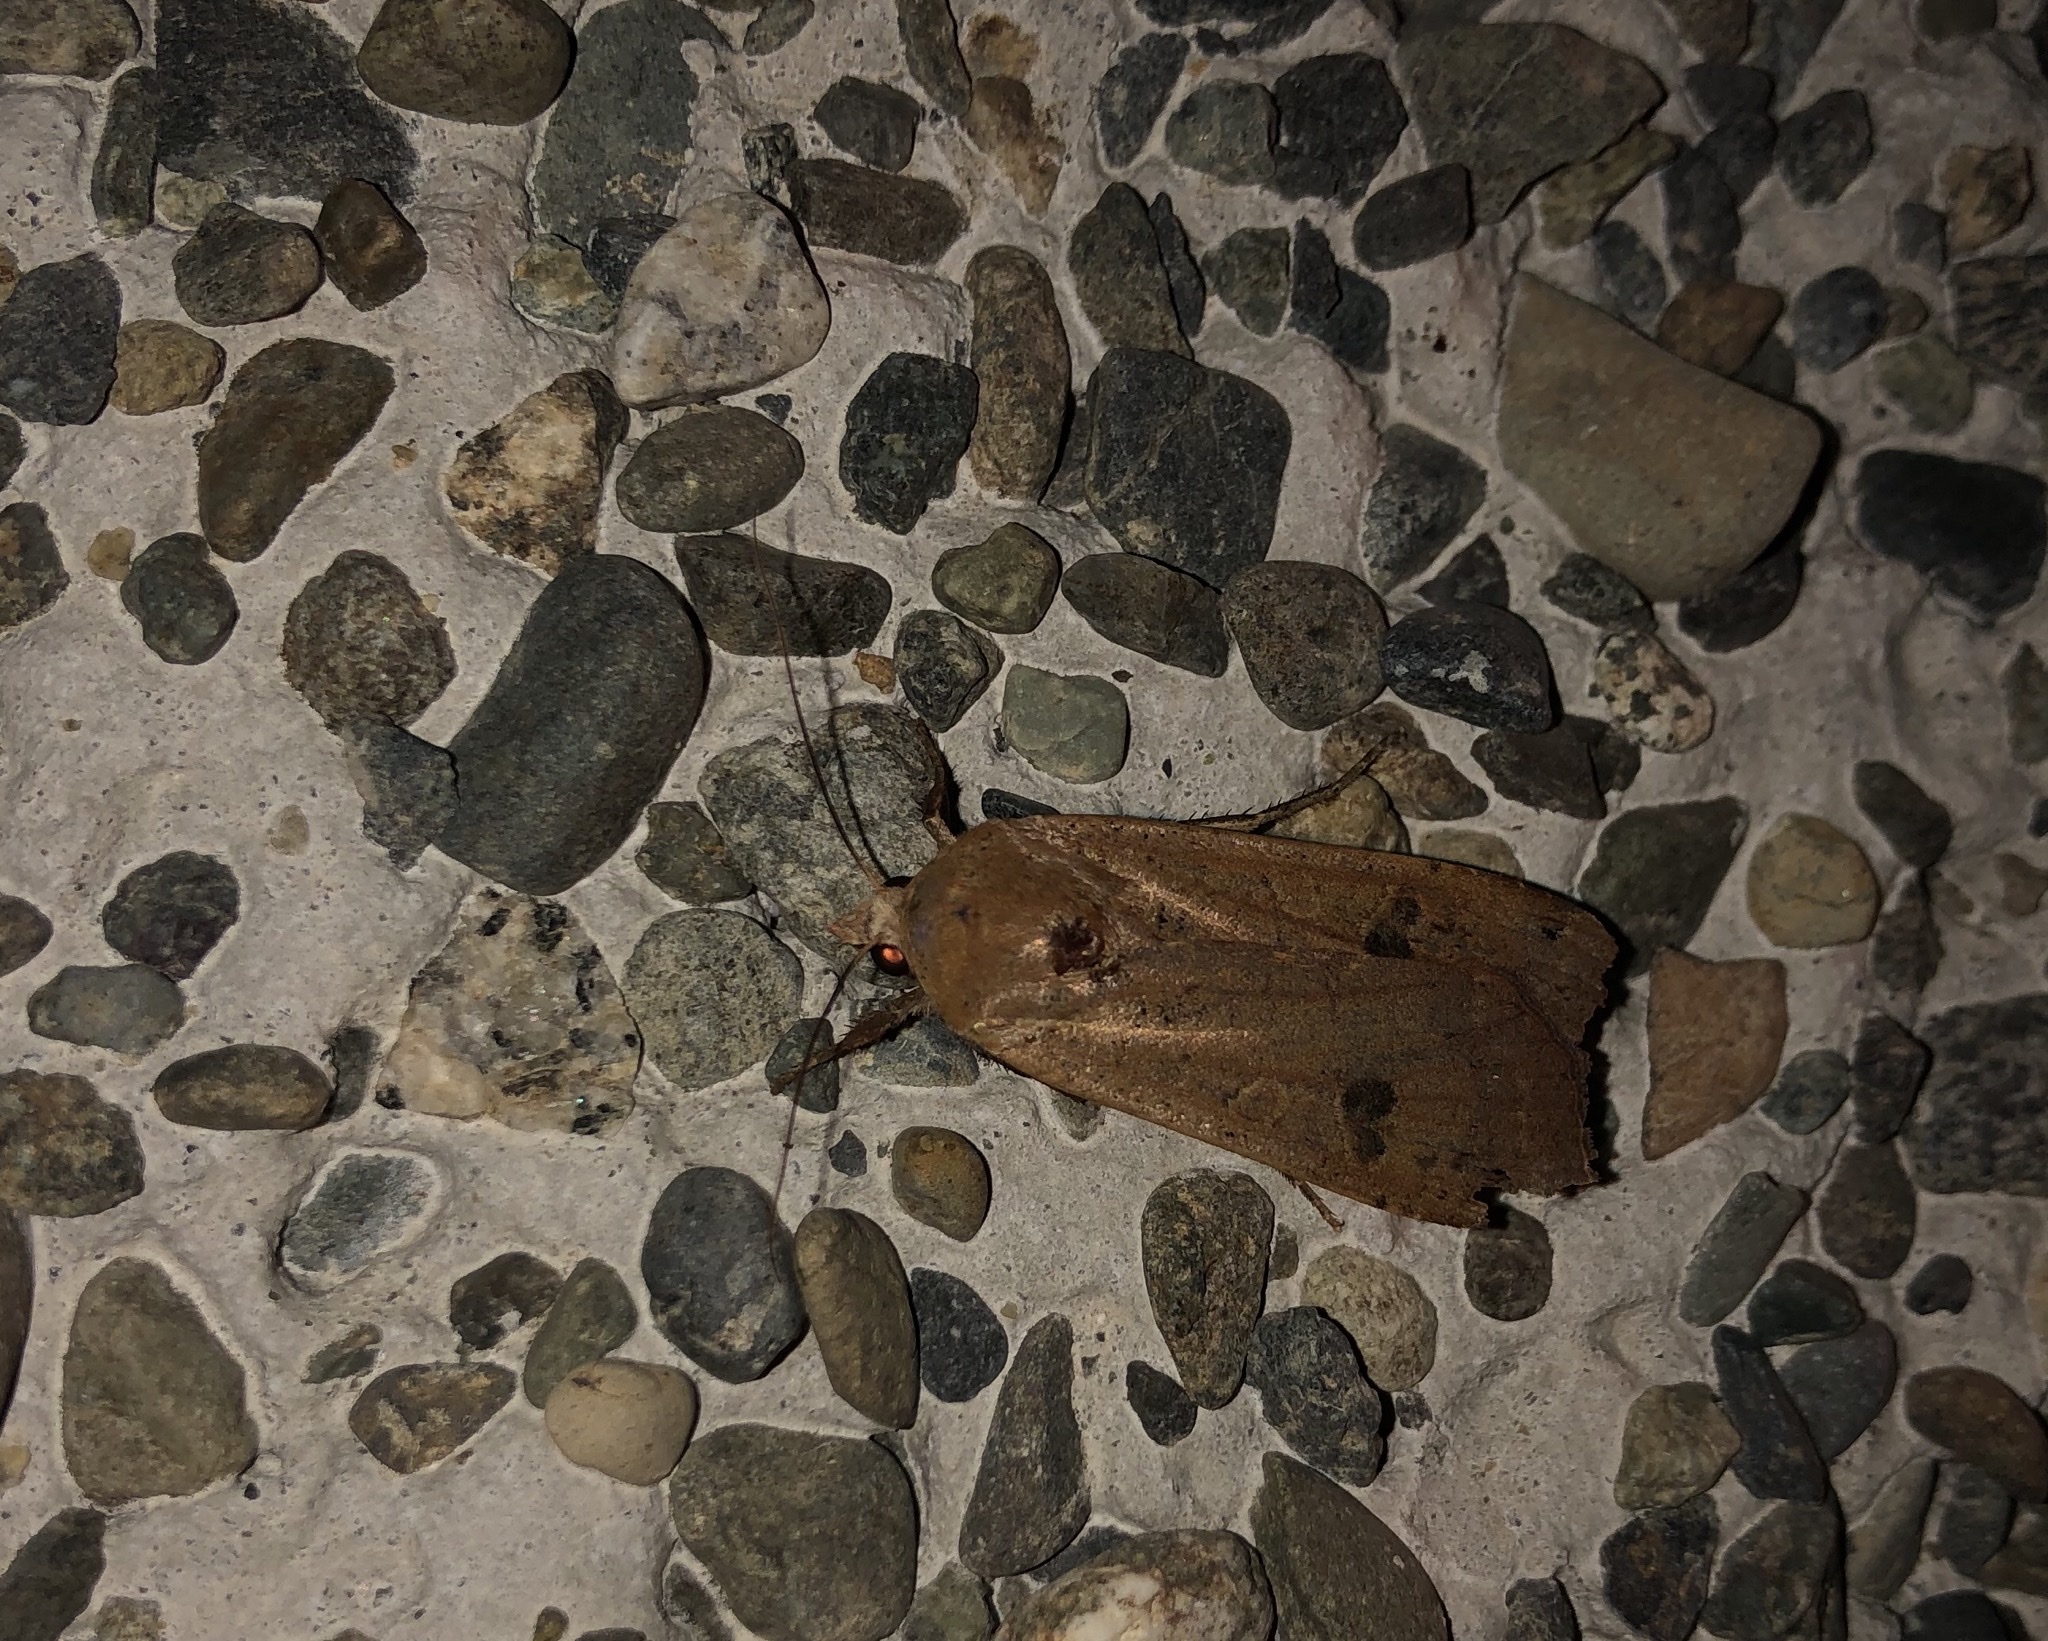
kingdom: Animalia
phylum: Arthropoda
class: Insecta
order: Lepidoptera
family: Noctuidae
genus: Noctua
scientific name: Noctua pronuba
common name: Large yellow underwing
